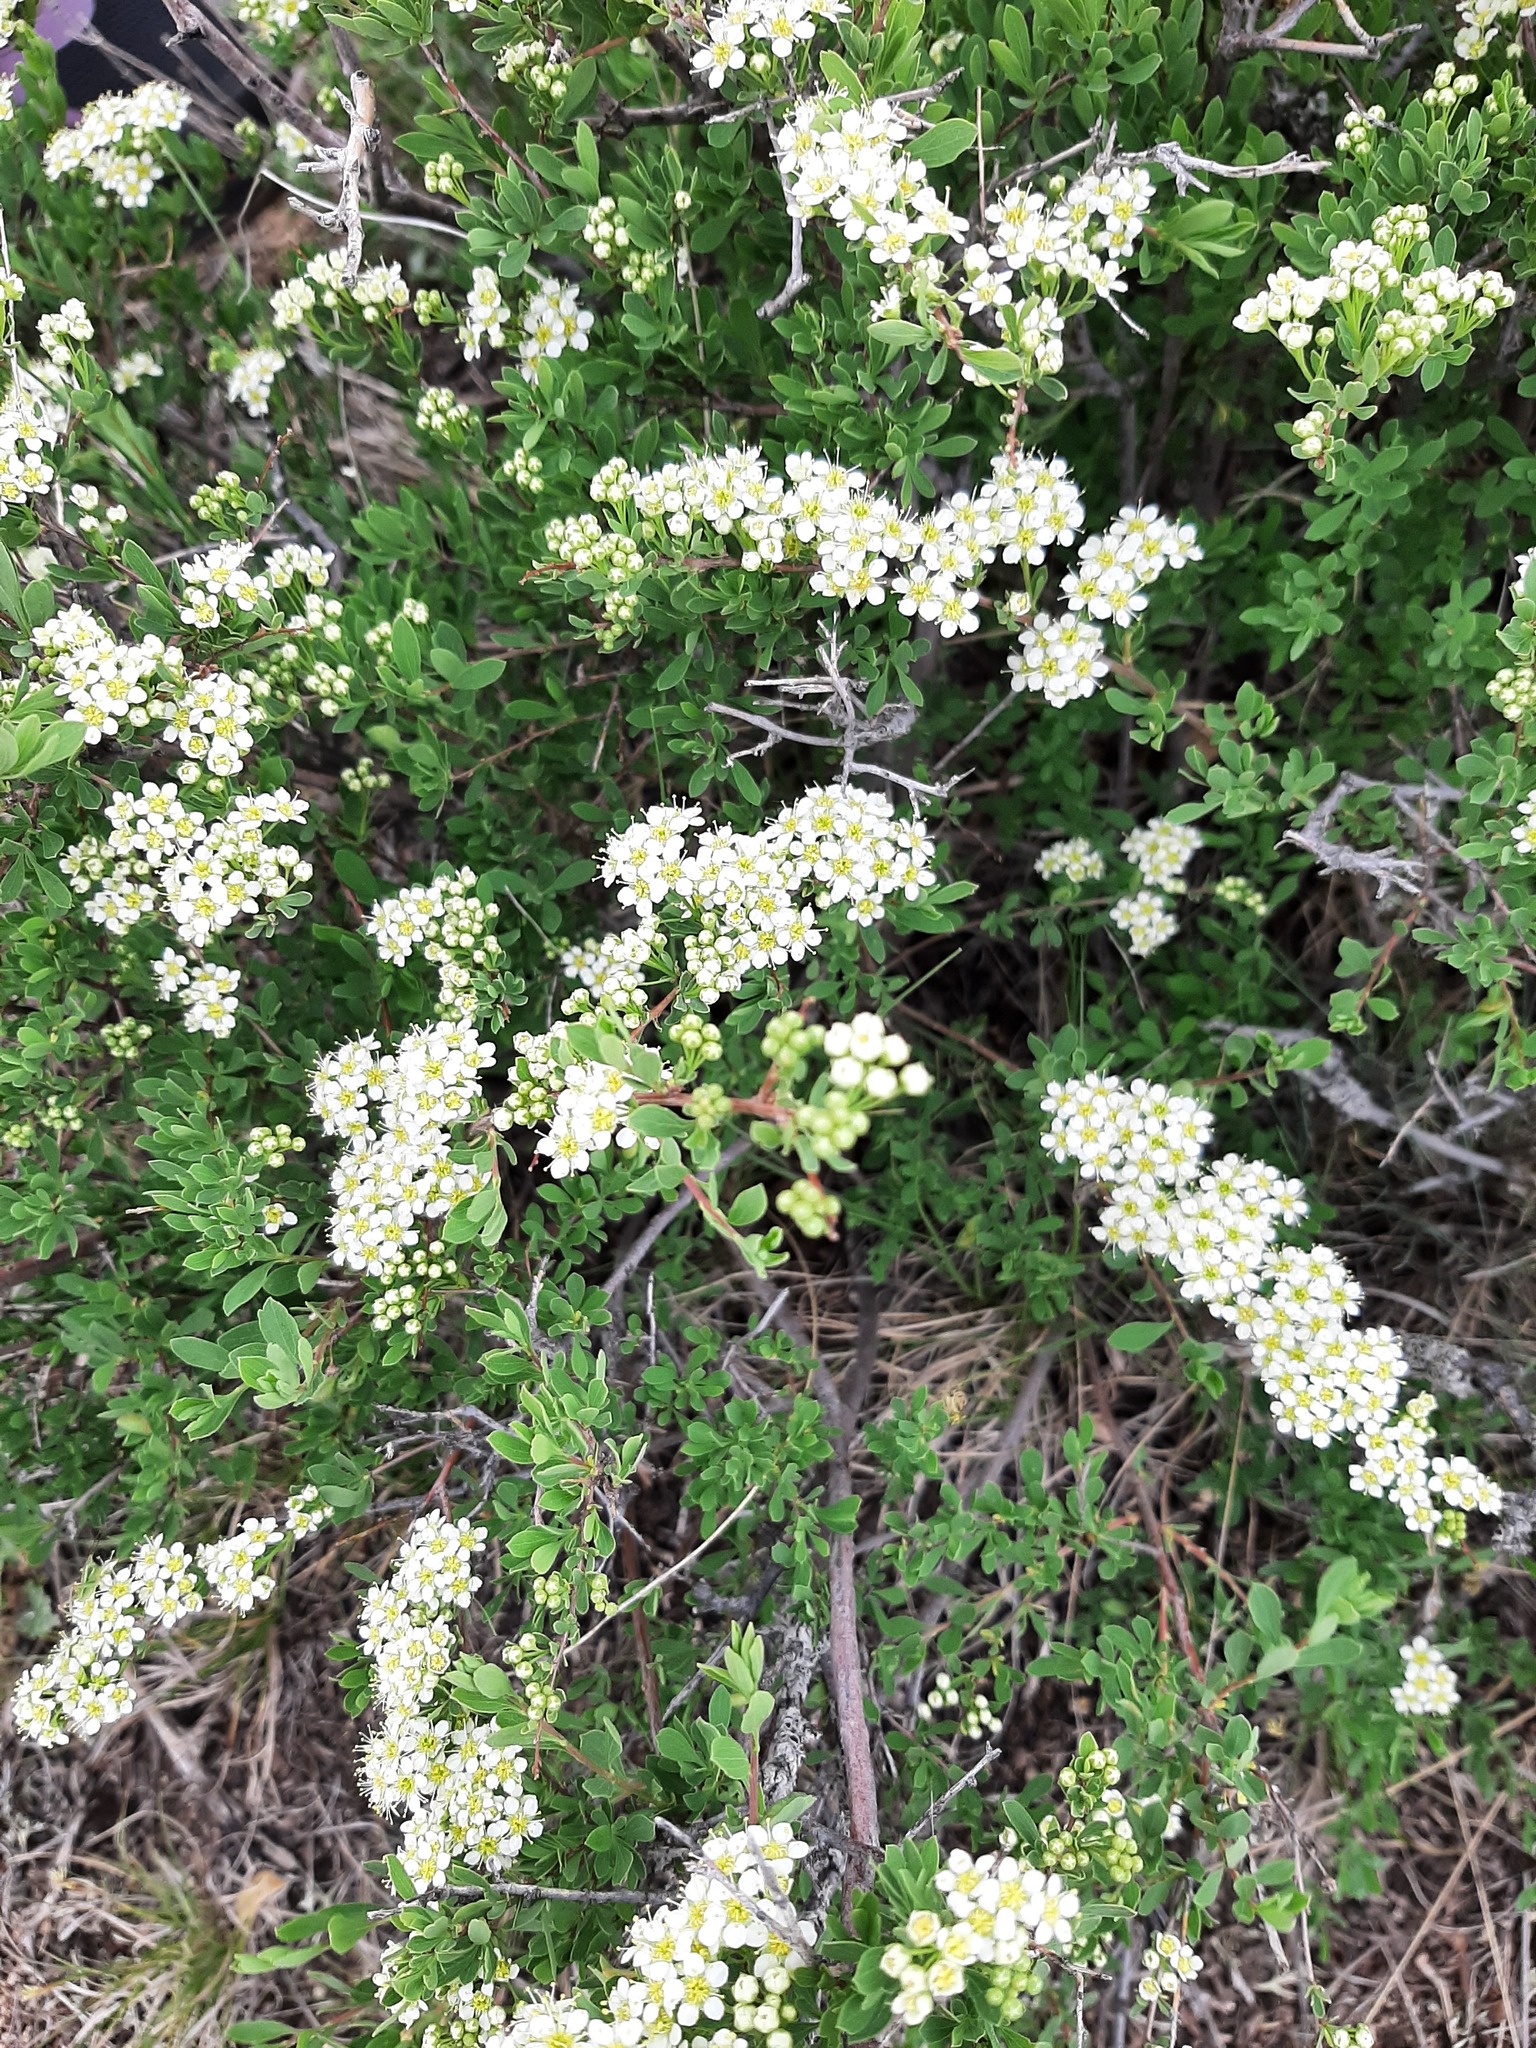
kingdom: Plantae
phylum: Tracheophyta
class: Magnoliopsida
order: Rosales
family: Rosaceae
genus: Spiraea
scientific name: Spiraea hypericifolia
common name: Iberian spirea
